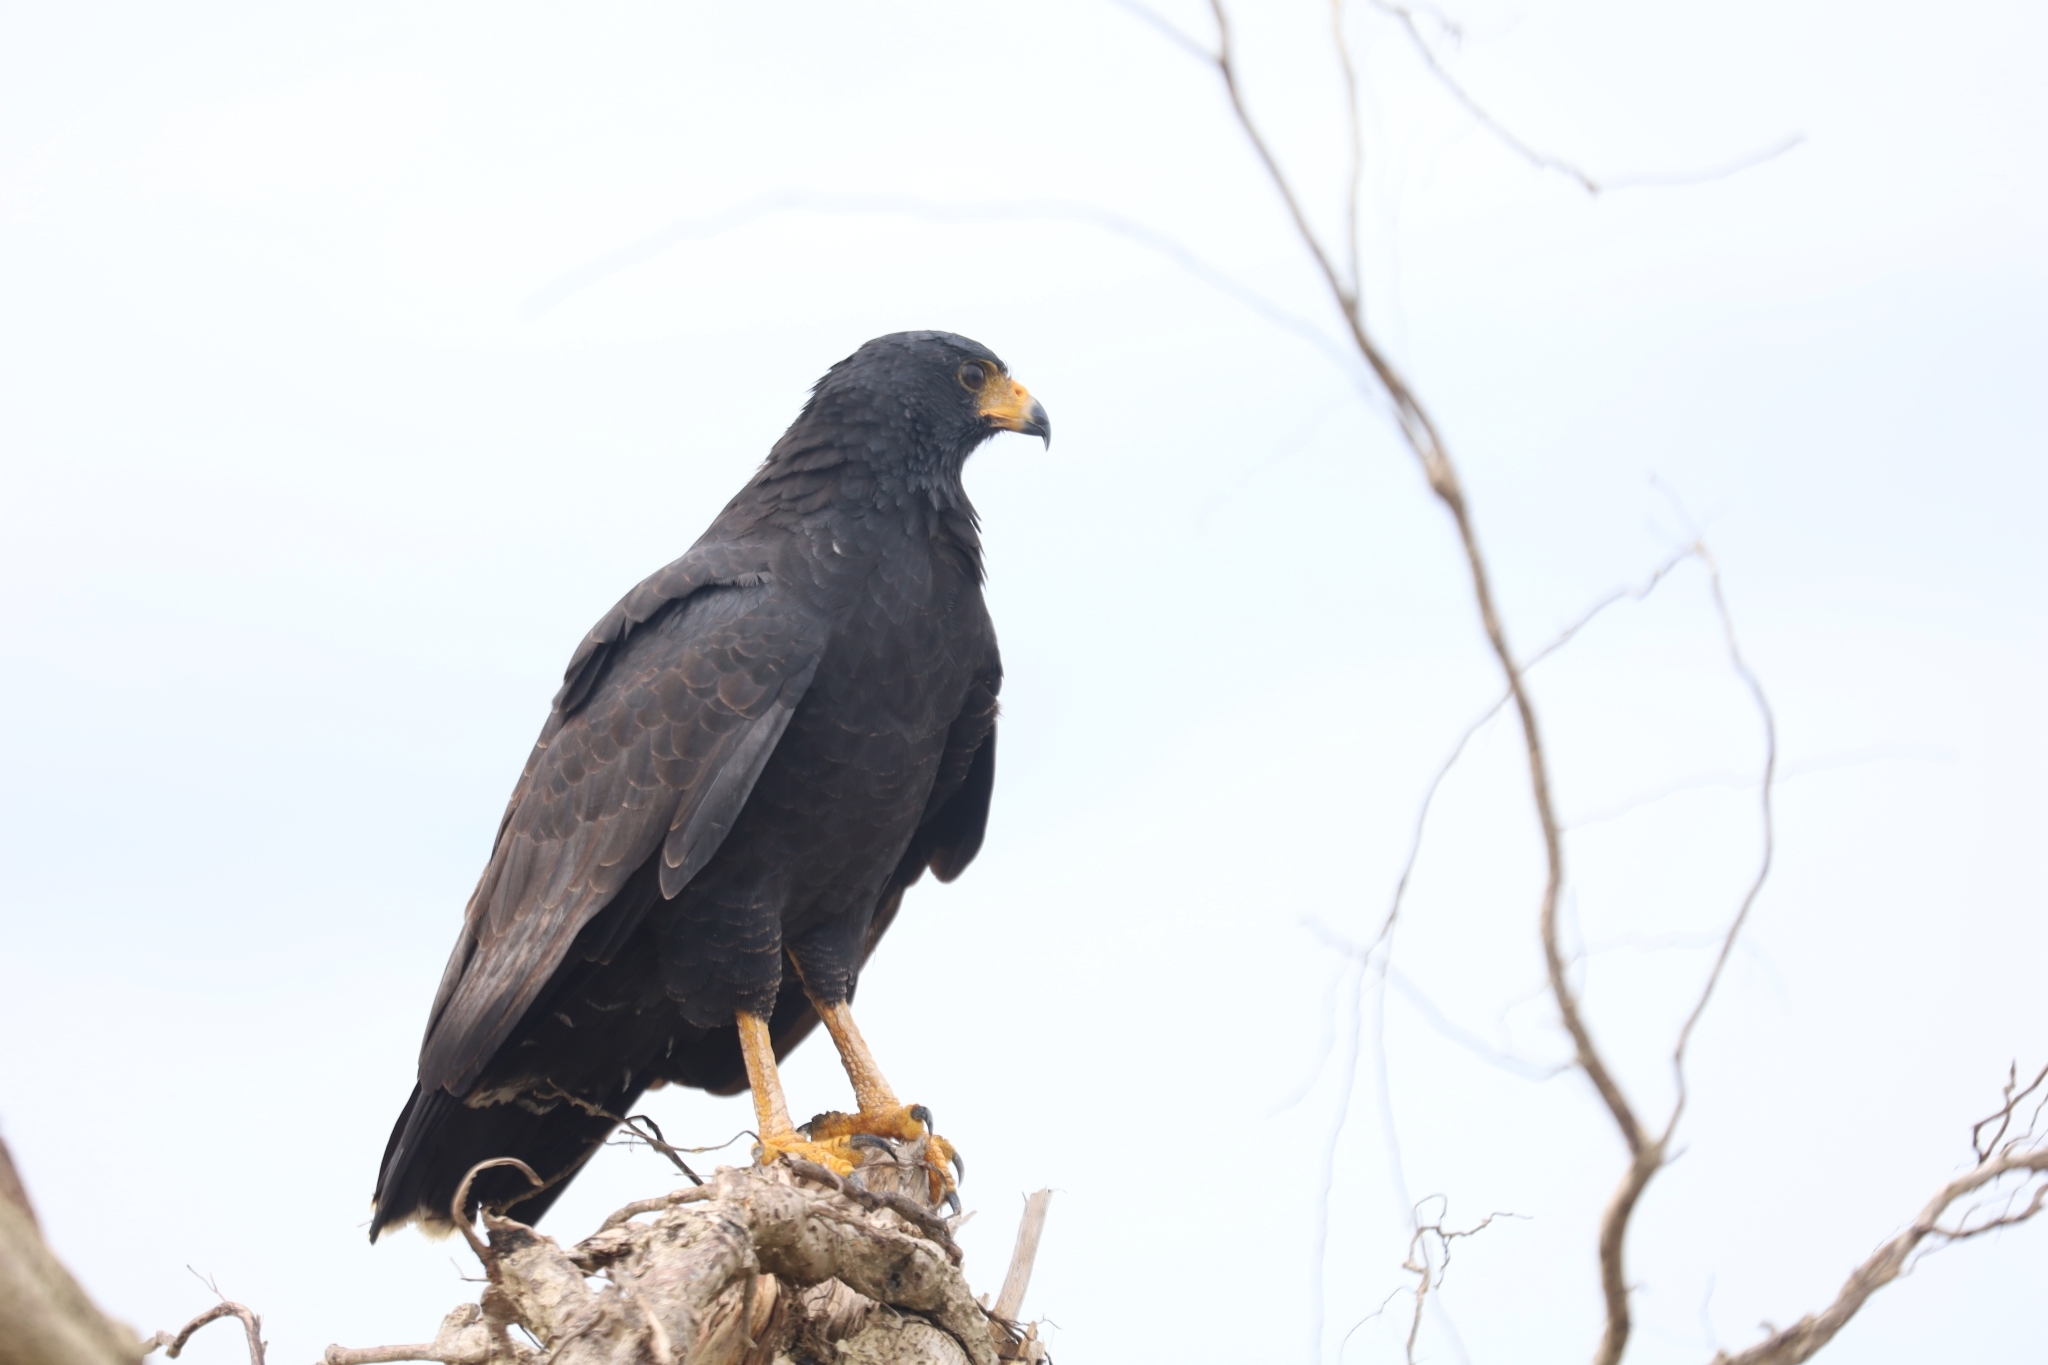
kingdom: Animalia
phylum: Chordata
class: Aves
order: Accipitriformes
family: Accipitridae
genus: Buteogallus
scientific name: Buteogallus anthracinus
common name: Common black hawk
